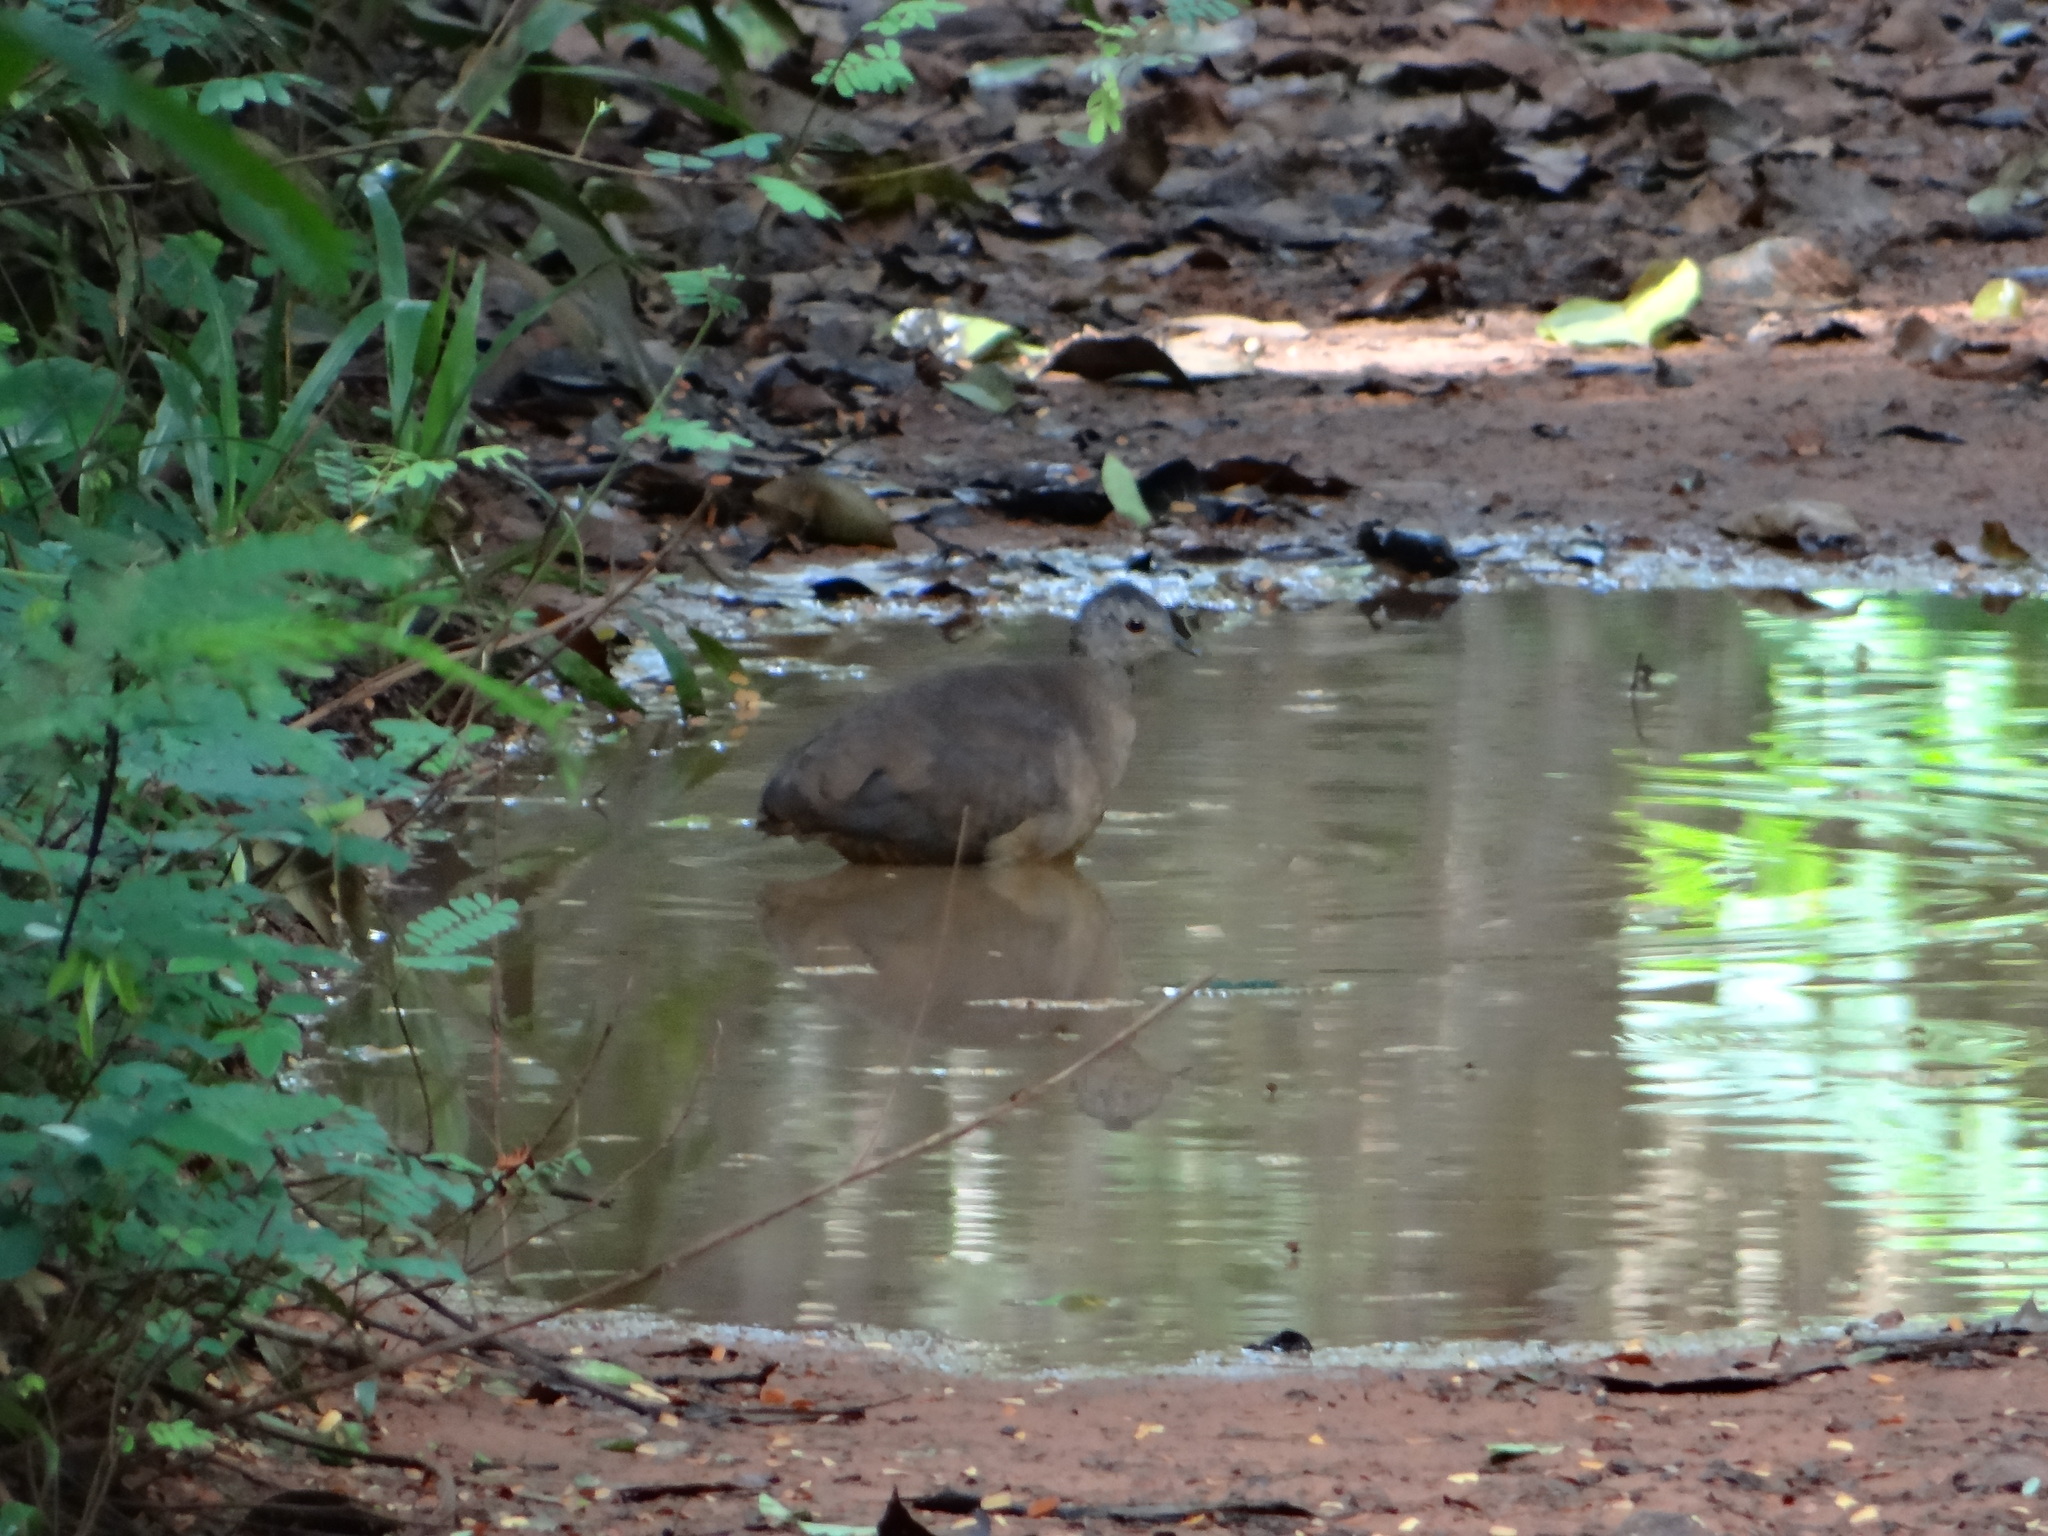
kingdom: Animalia
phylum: Chordata
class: Aves
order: Tinamiformes
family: Tinamidae
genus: Crypturellus
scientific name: Crypturellus soui
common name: Little tinamou
